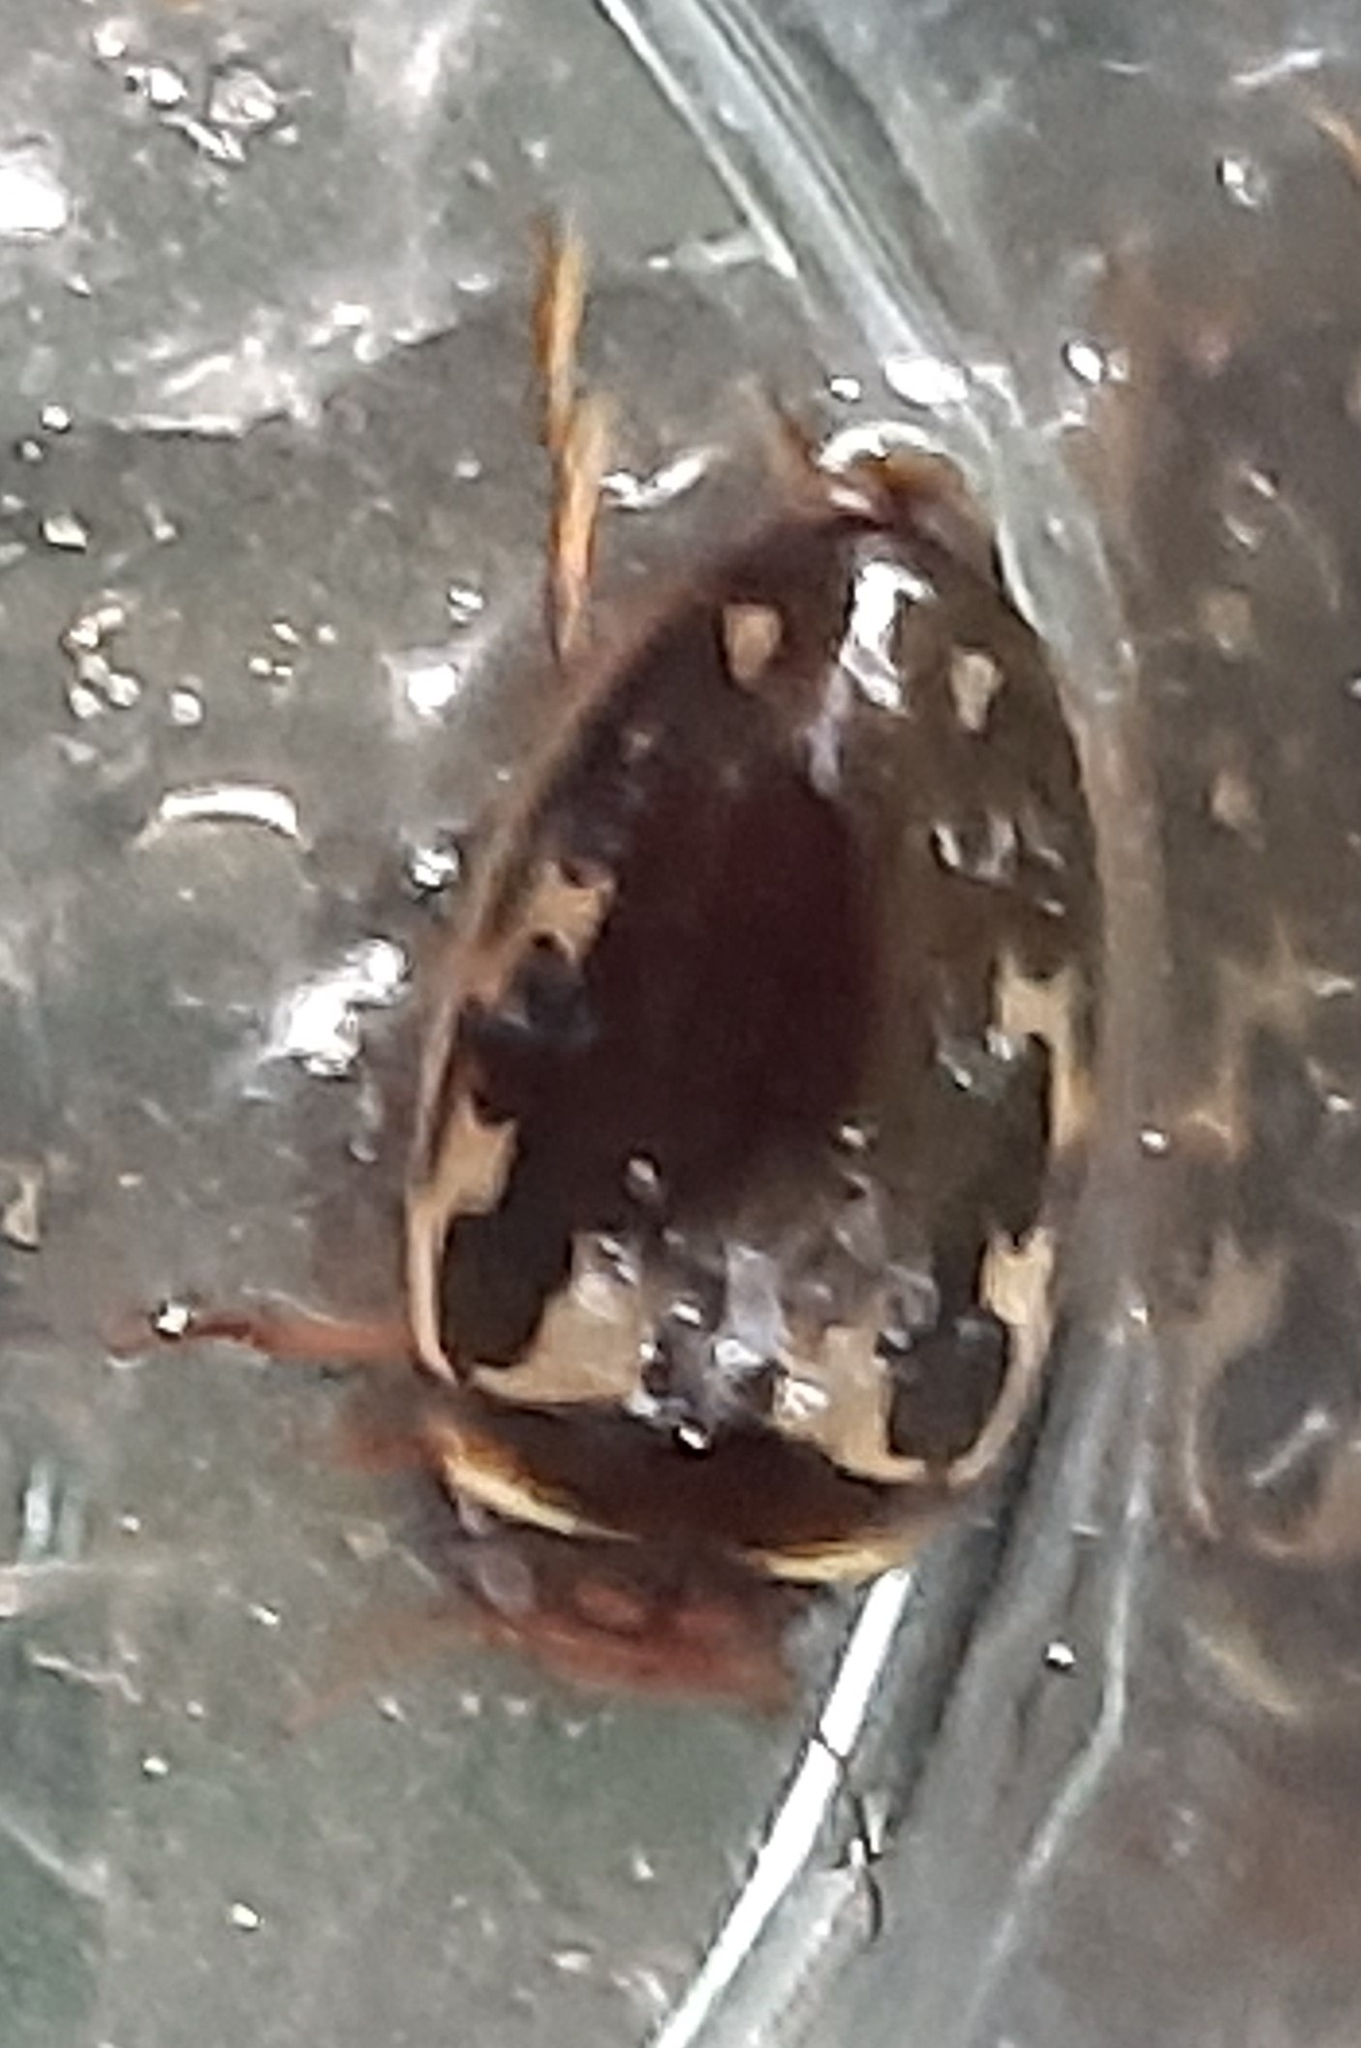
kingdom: Animalia
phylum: Arthropoda
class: Insecta
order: Coleoptera
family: Dytiscidae
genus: Platambus
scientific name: Platambus maculatus
